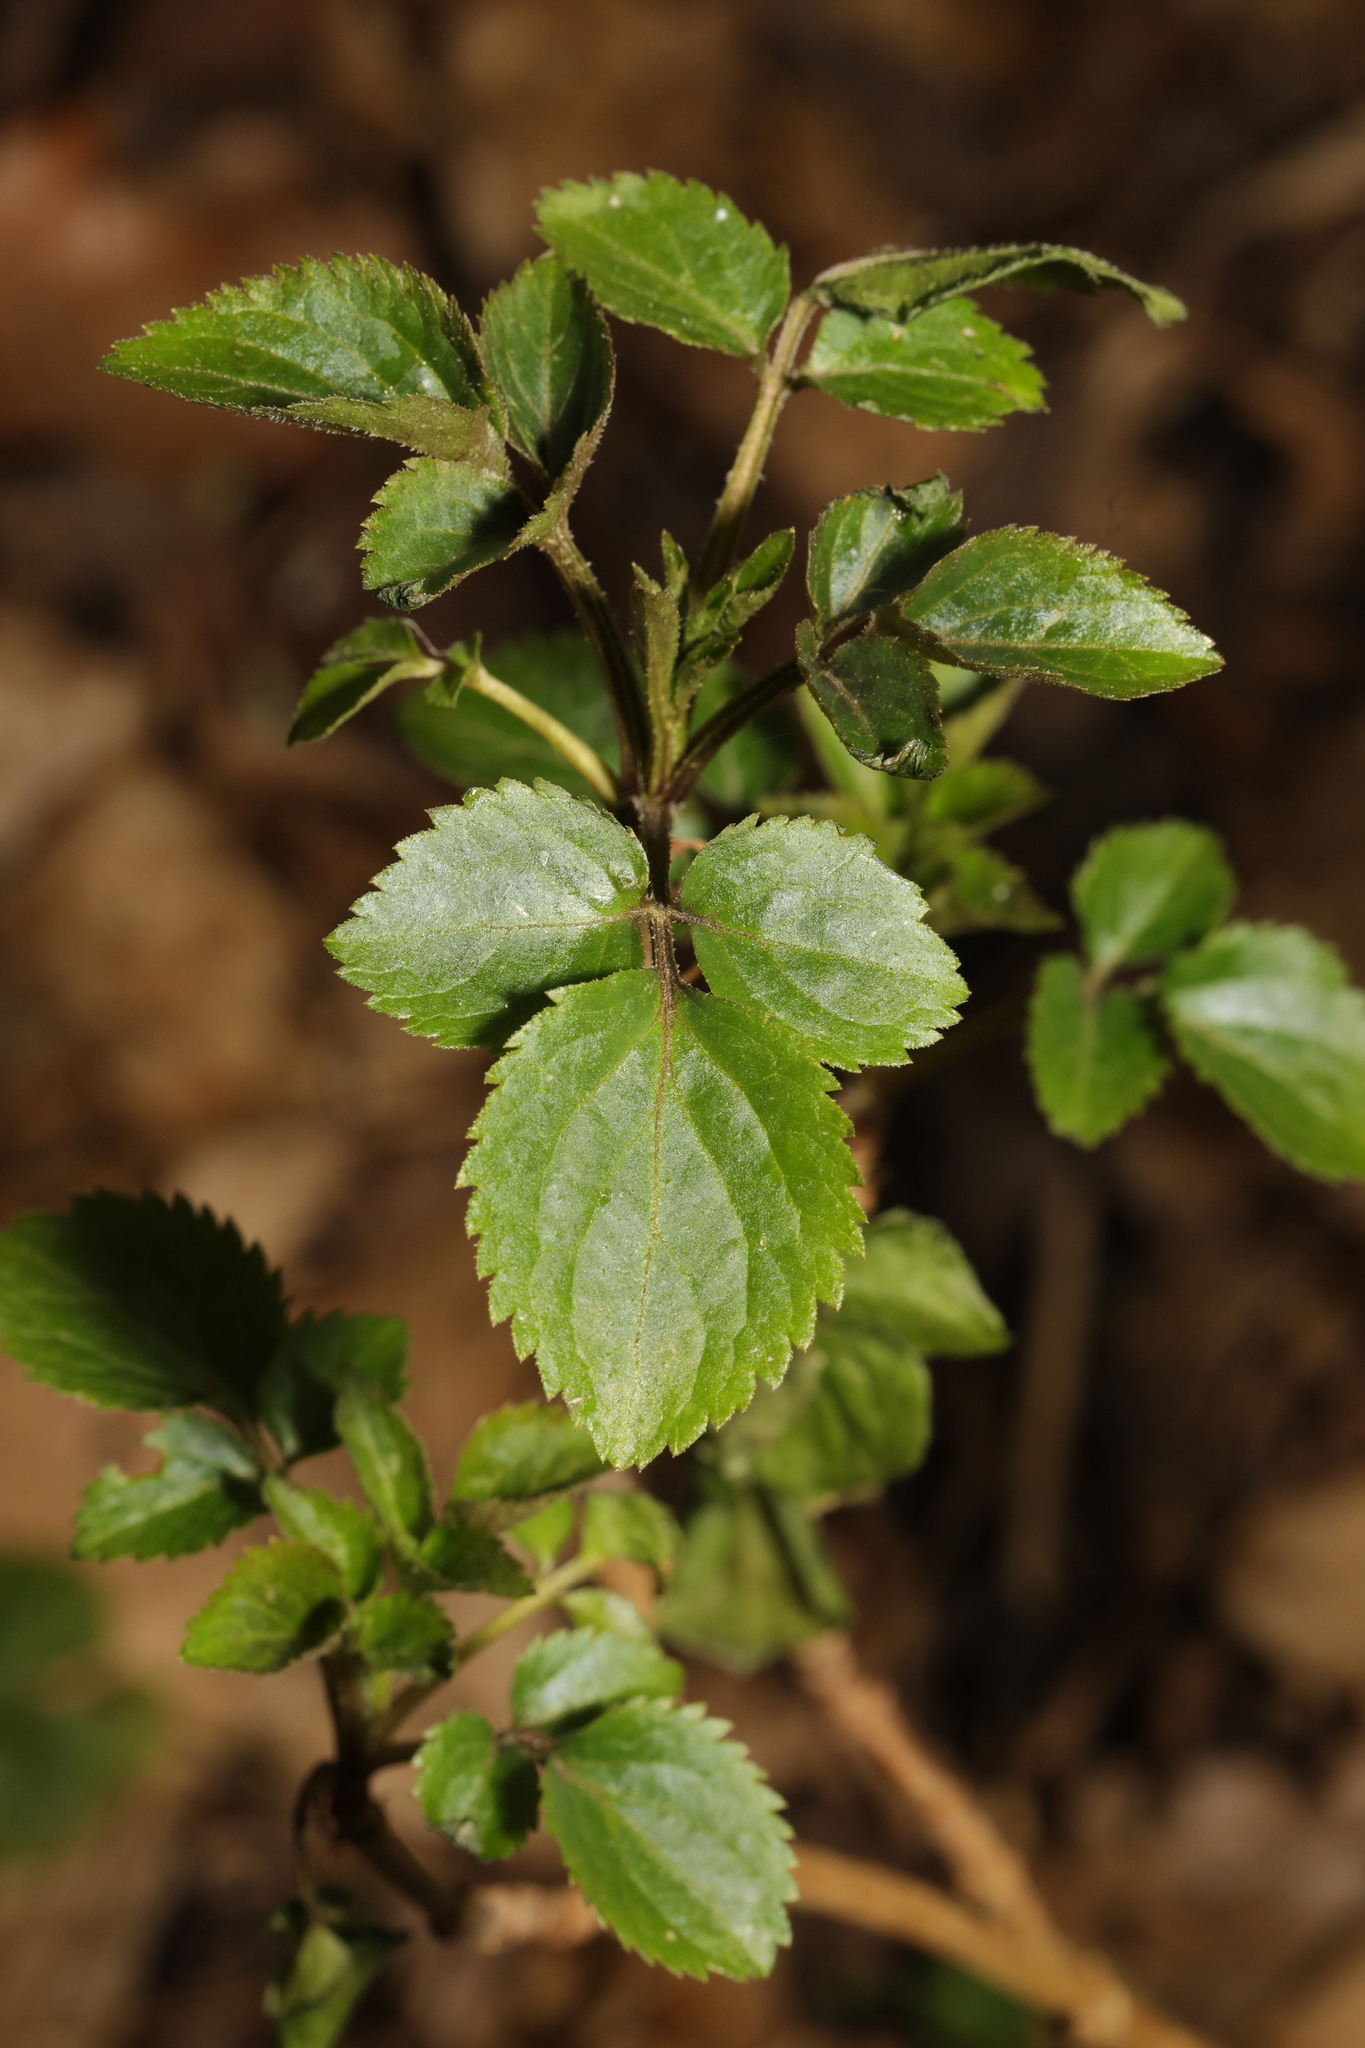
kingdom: Plantae
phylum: Tracheophyta
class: Magnoliopsida
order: Dipsacales
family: Viburnaceae
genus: Sambucus
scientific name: Sambucus nigra
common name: Elder
